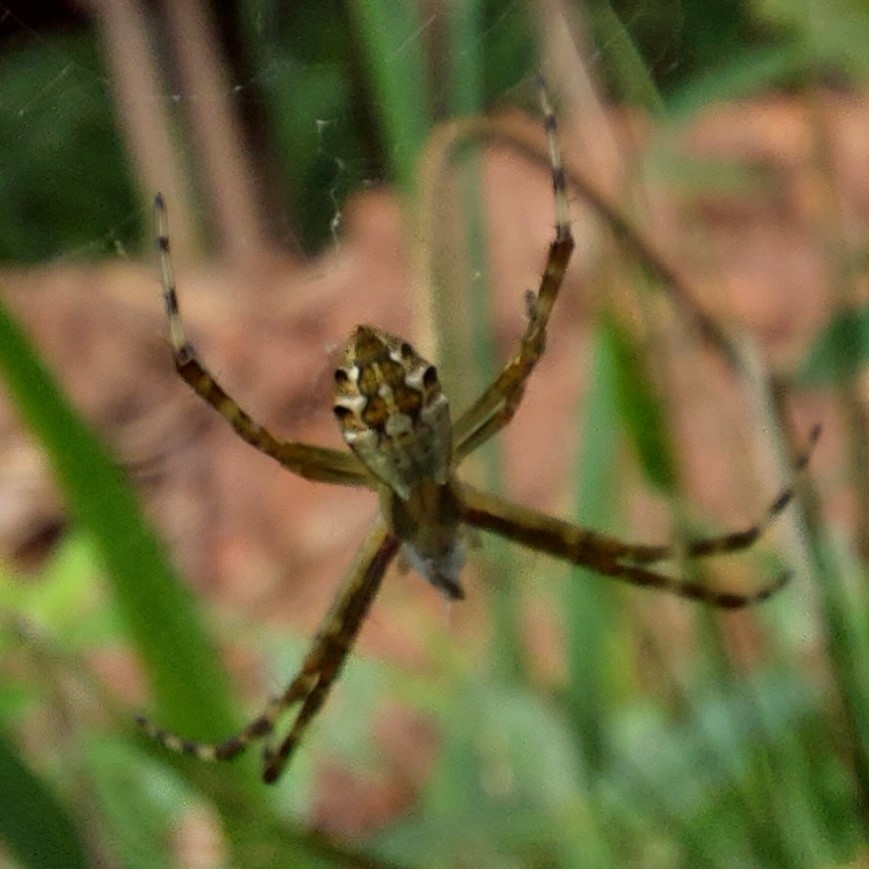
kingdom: Animalia
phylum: Arthropoda
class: Arachnida
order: Araneae
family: Araneidae
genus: Argiope
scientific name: Argiope argentata
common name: Orb weavers
